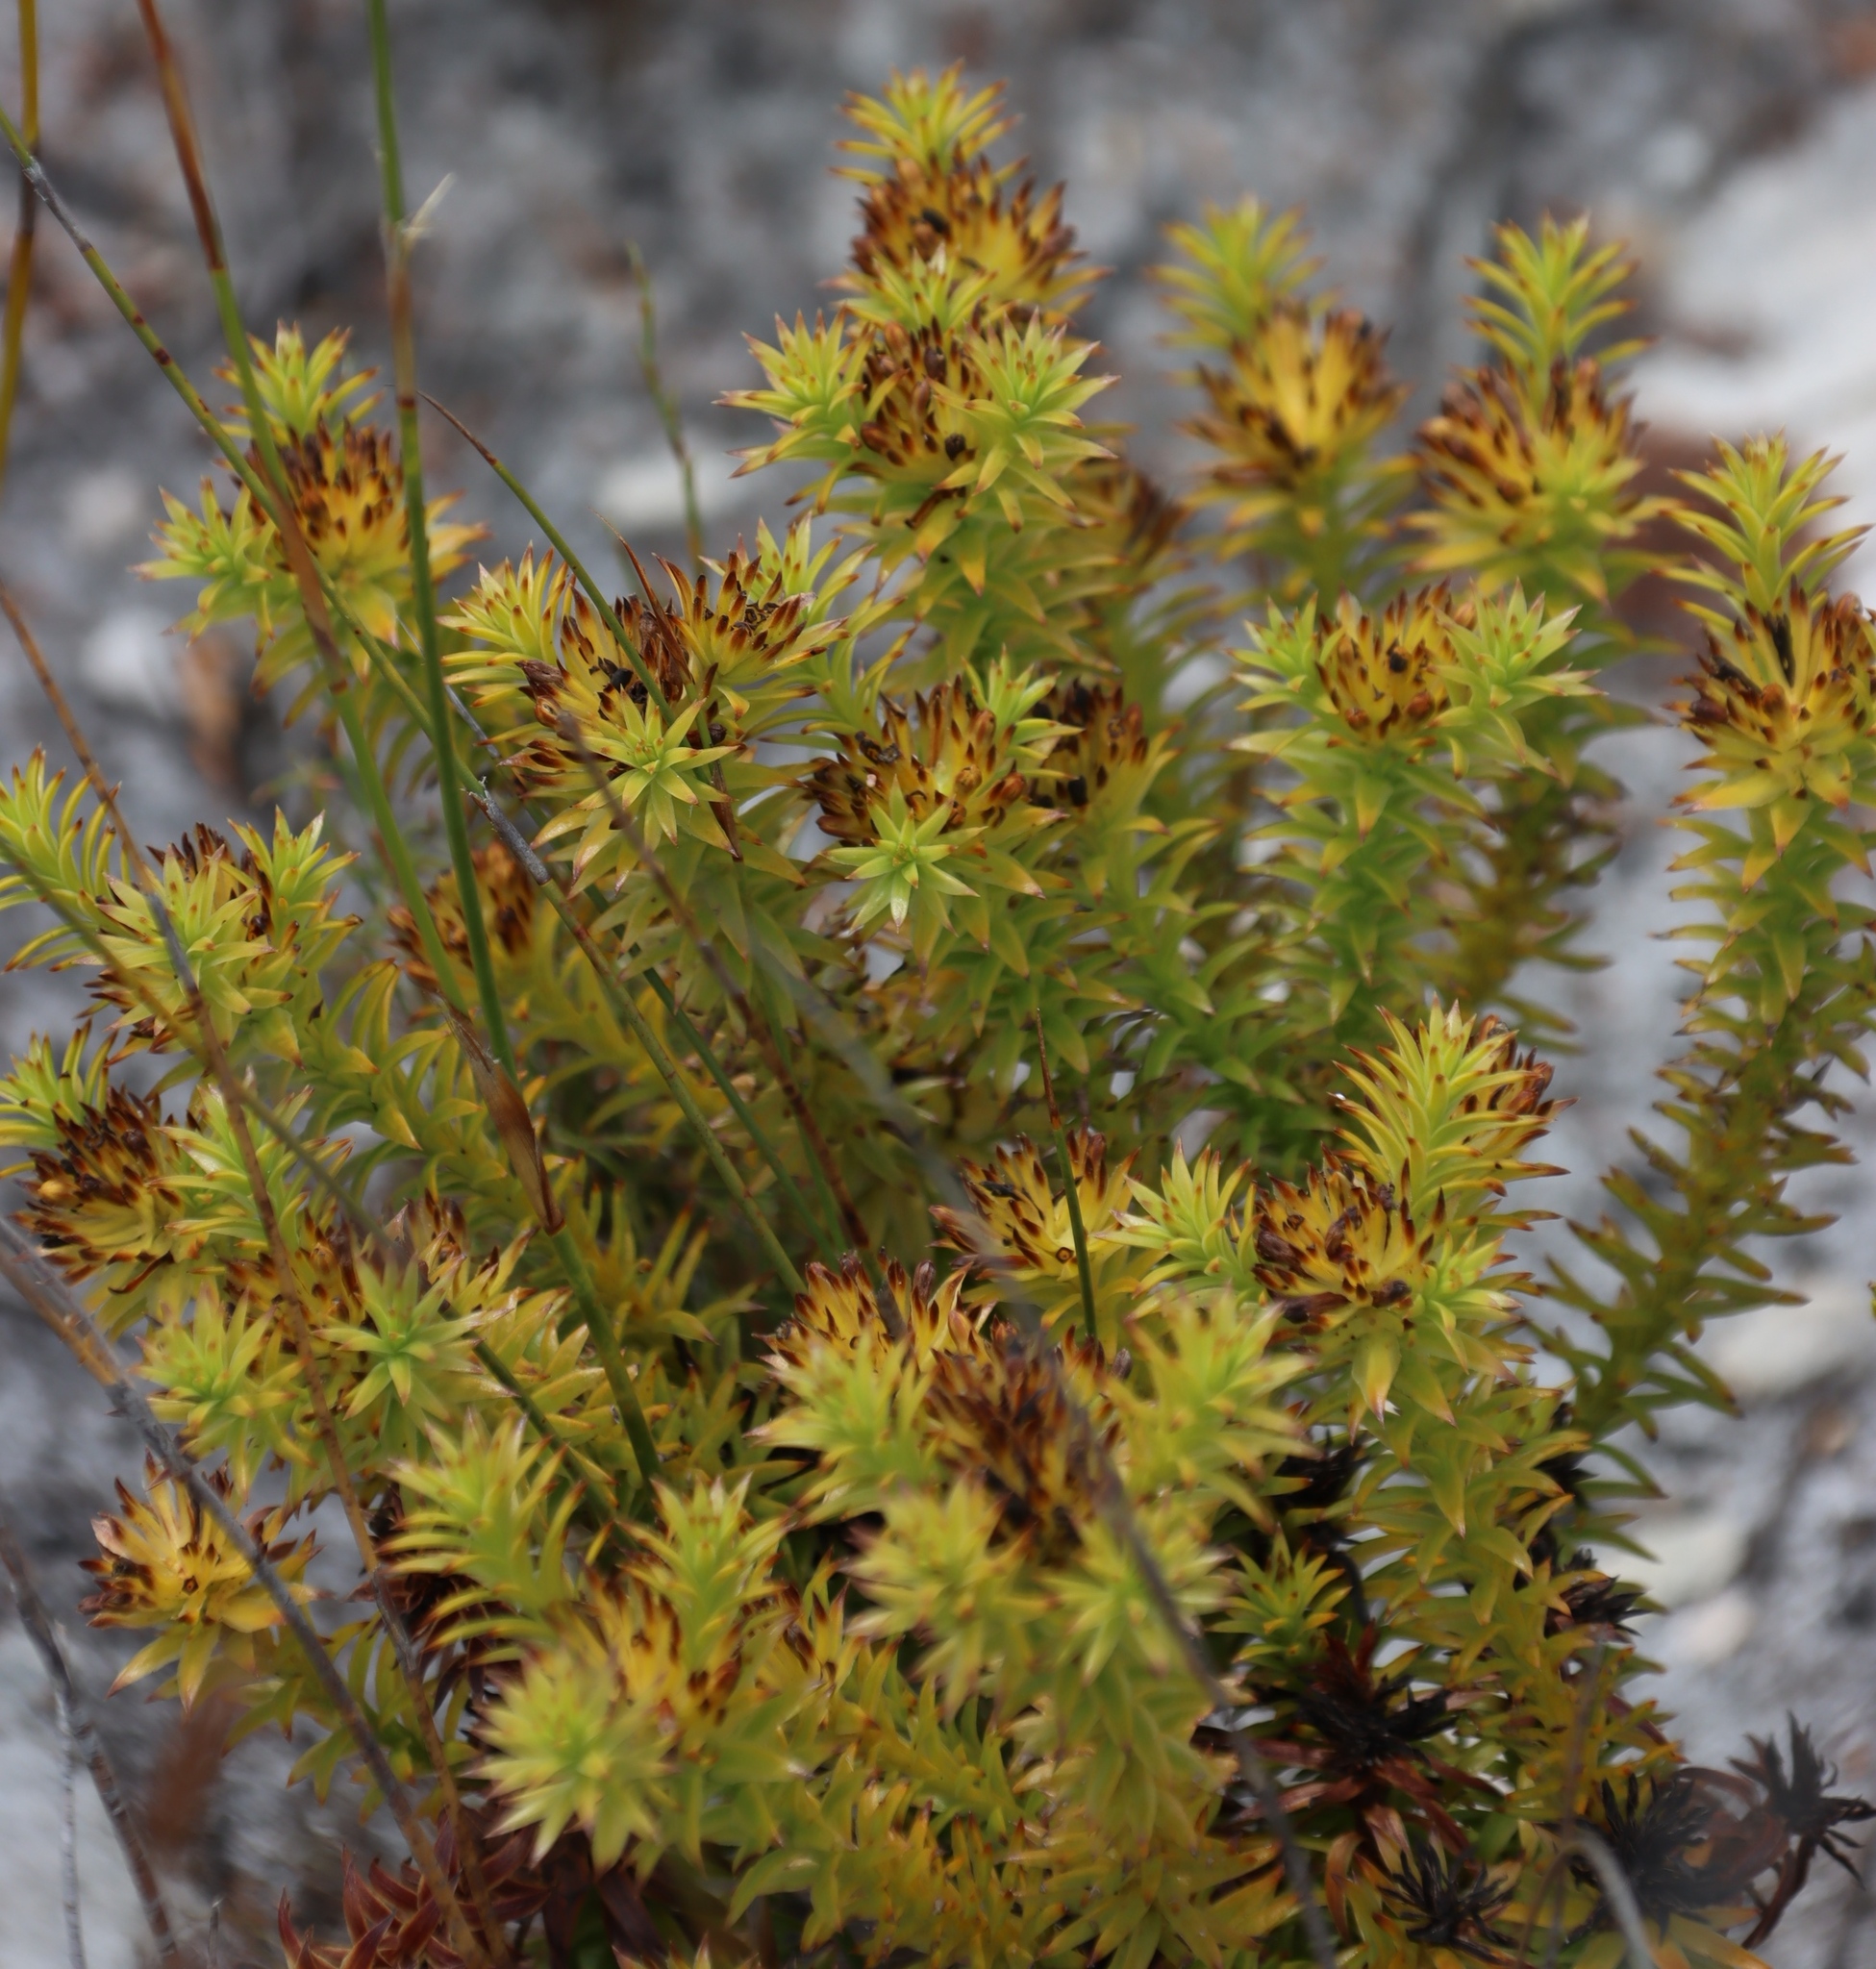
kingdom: Plantae
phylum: Tracheophyta
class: Magnoliopsida
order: Santalales
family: Thesiaceae
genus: Thesium
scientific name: Thesium viridifolium
